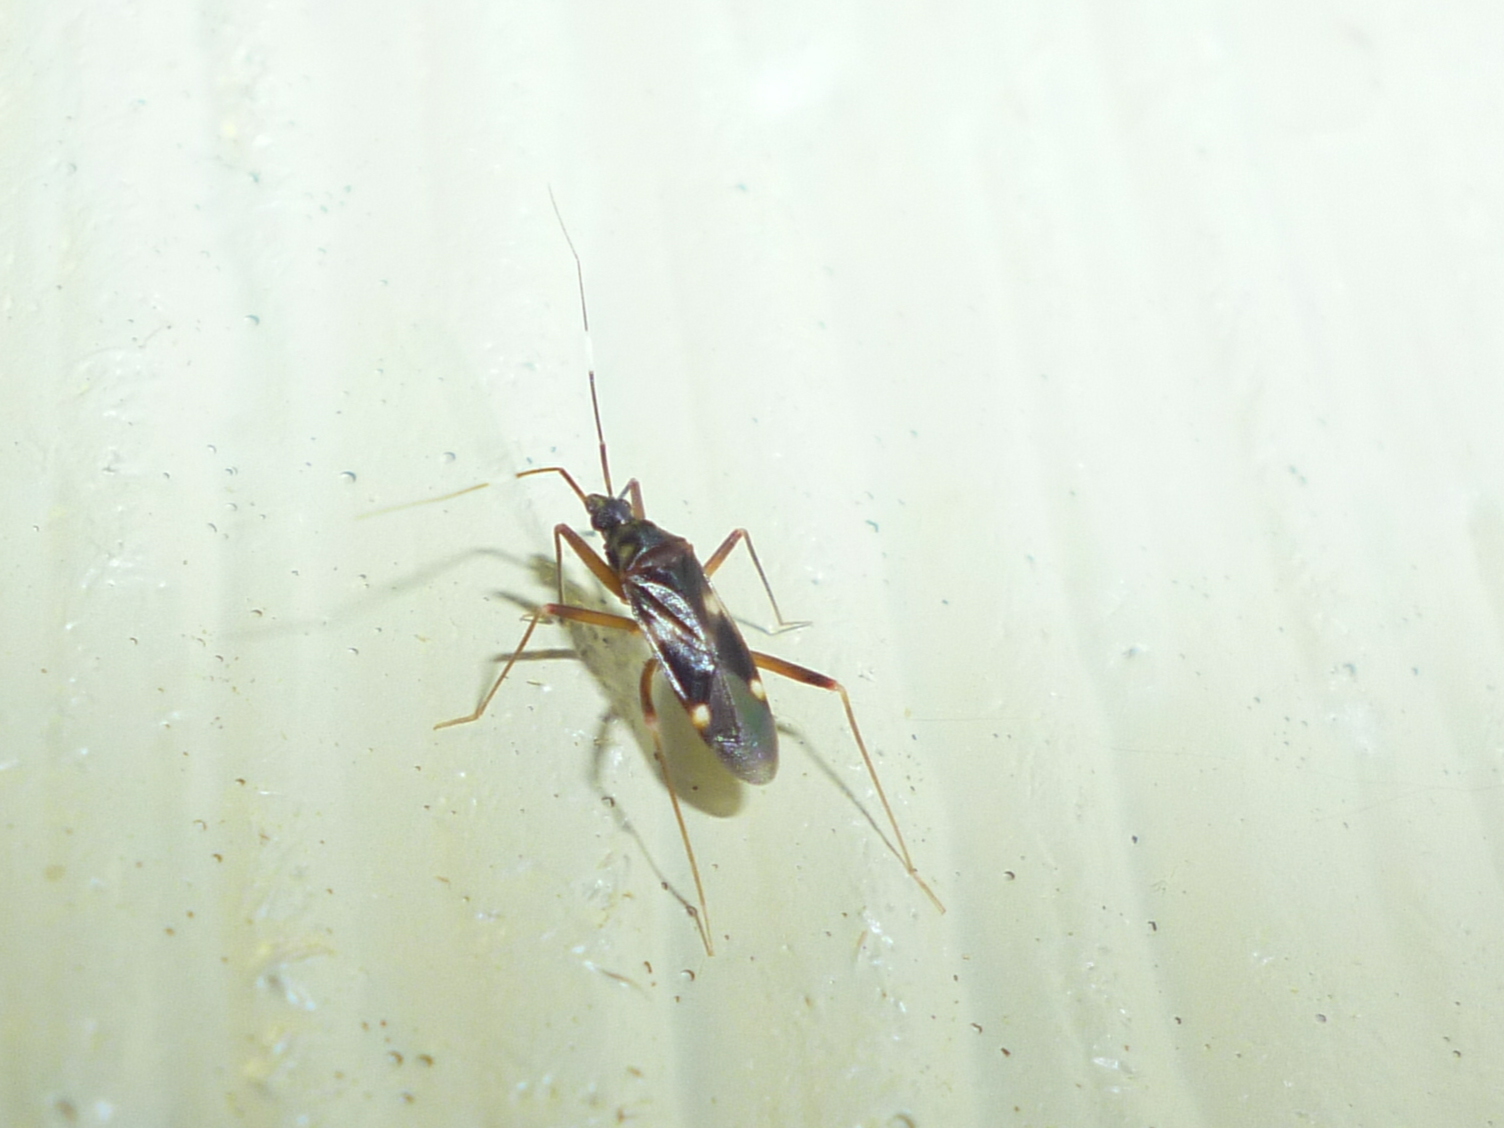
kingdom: Animalia
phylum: Arthropoda
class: Insecta
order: Hemiptera
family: Miridae
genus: Fulvius
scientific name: Fulvius imbecilis
